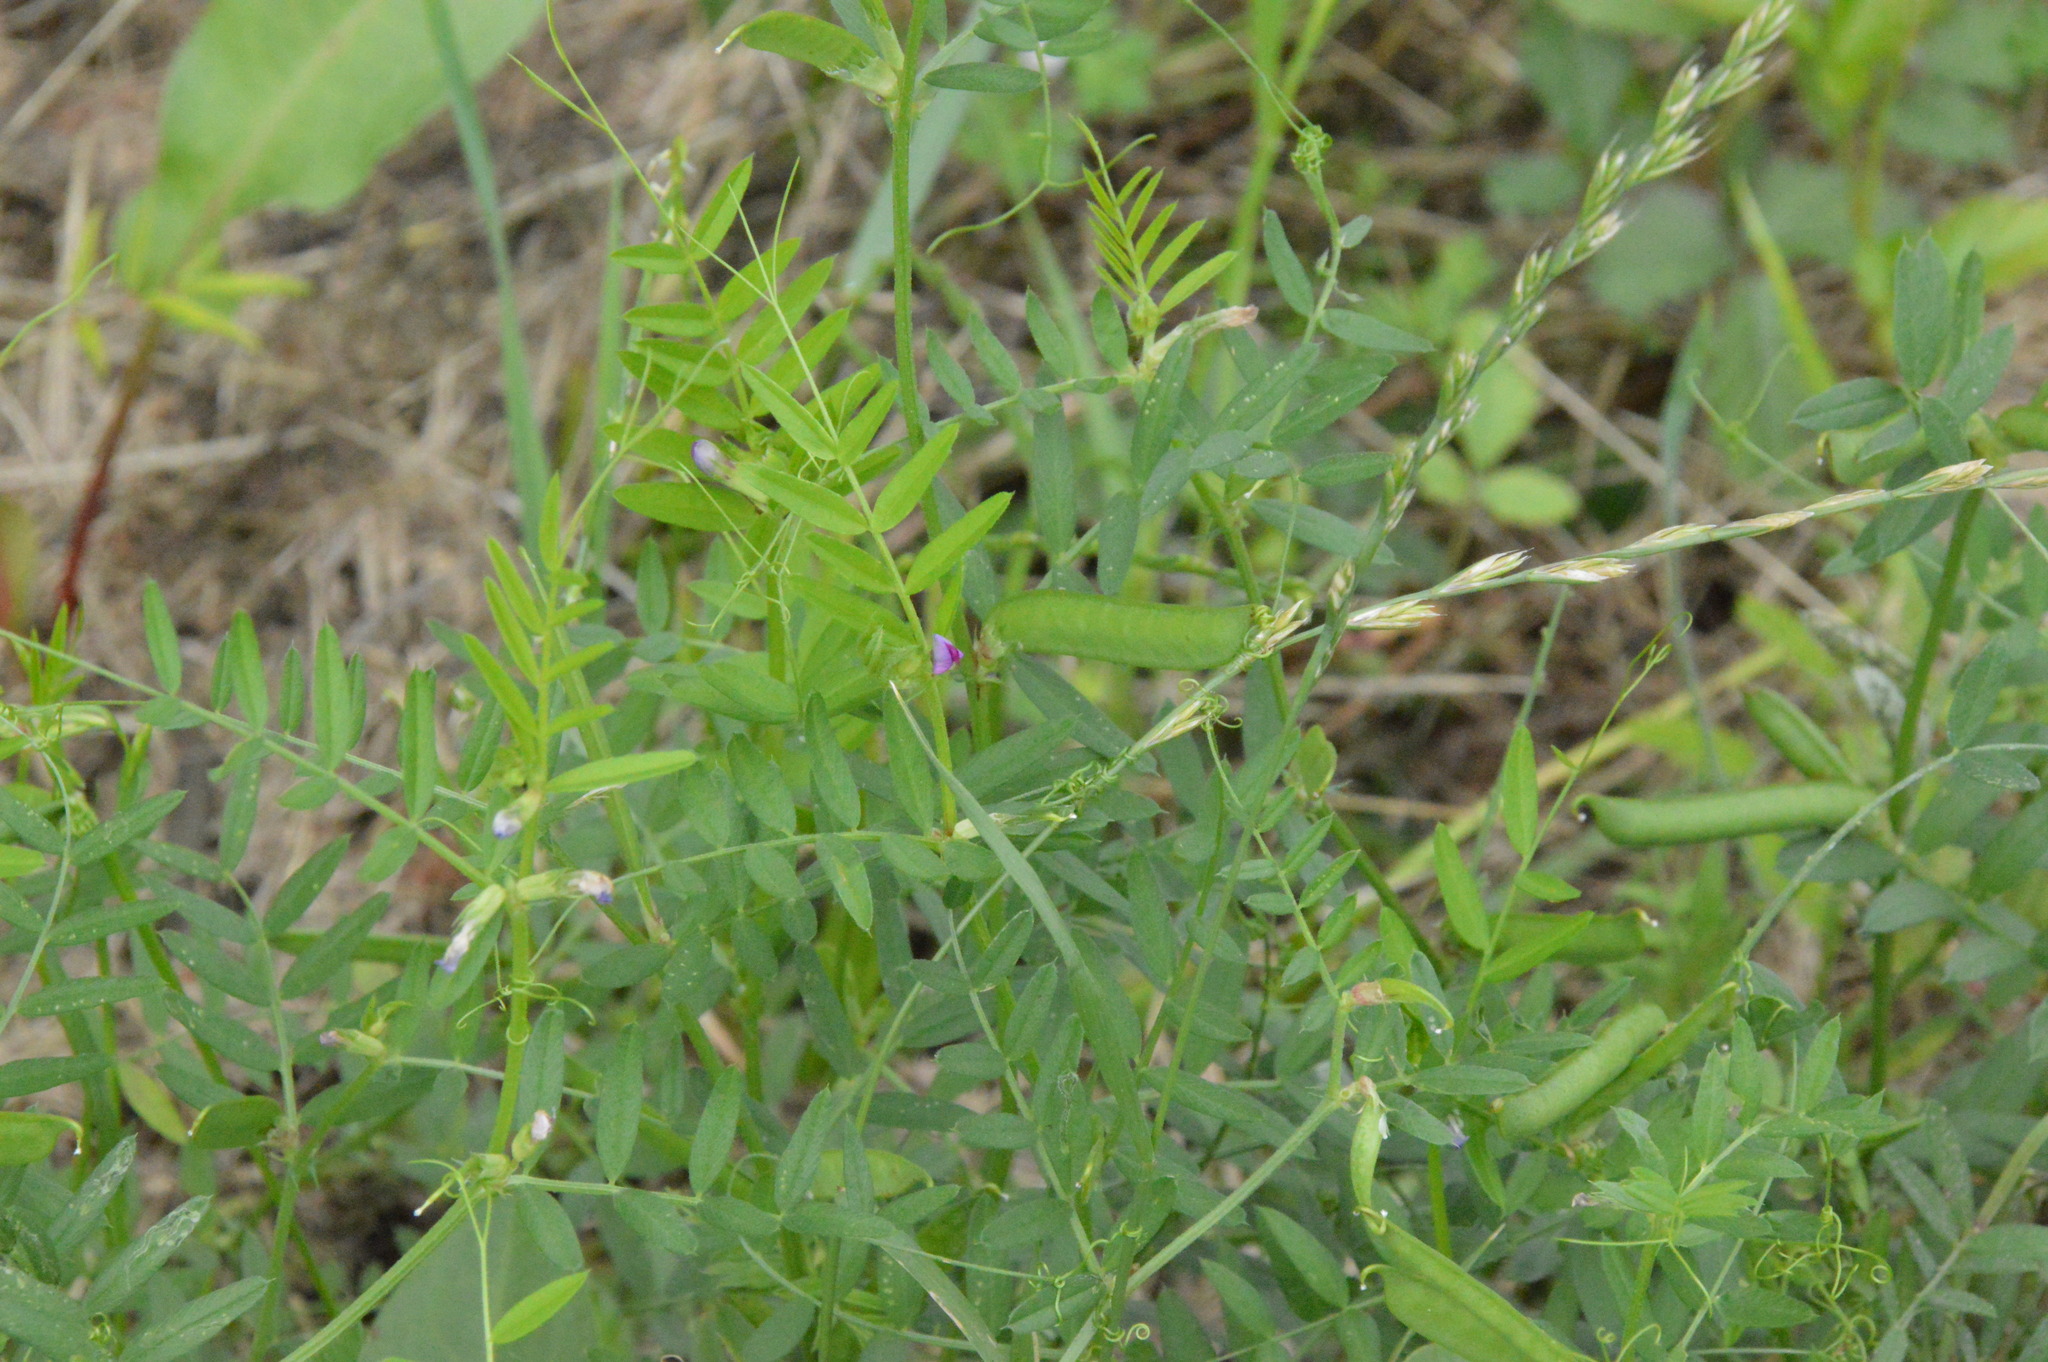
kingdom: Plantae
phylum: Tracheophyta
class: Magnoliopsida
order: Fabales
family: Fabaceae
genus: Vicia
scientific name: Vicia sativa
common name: Garden vetch
